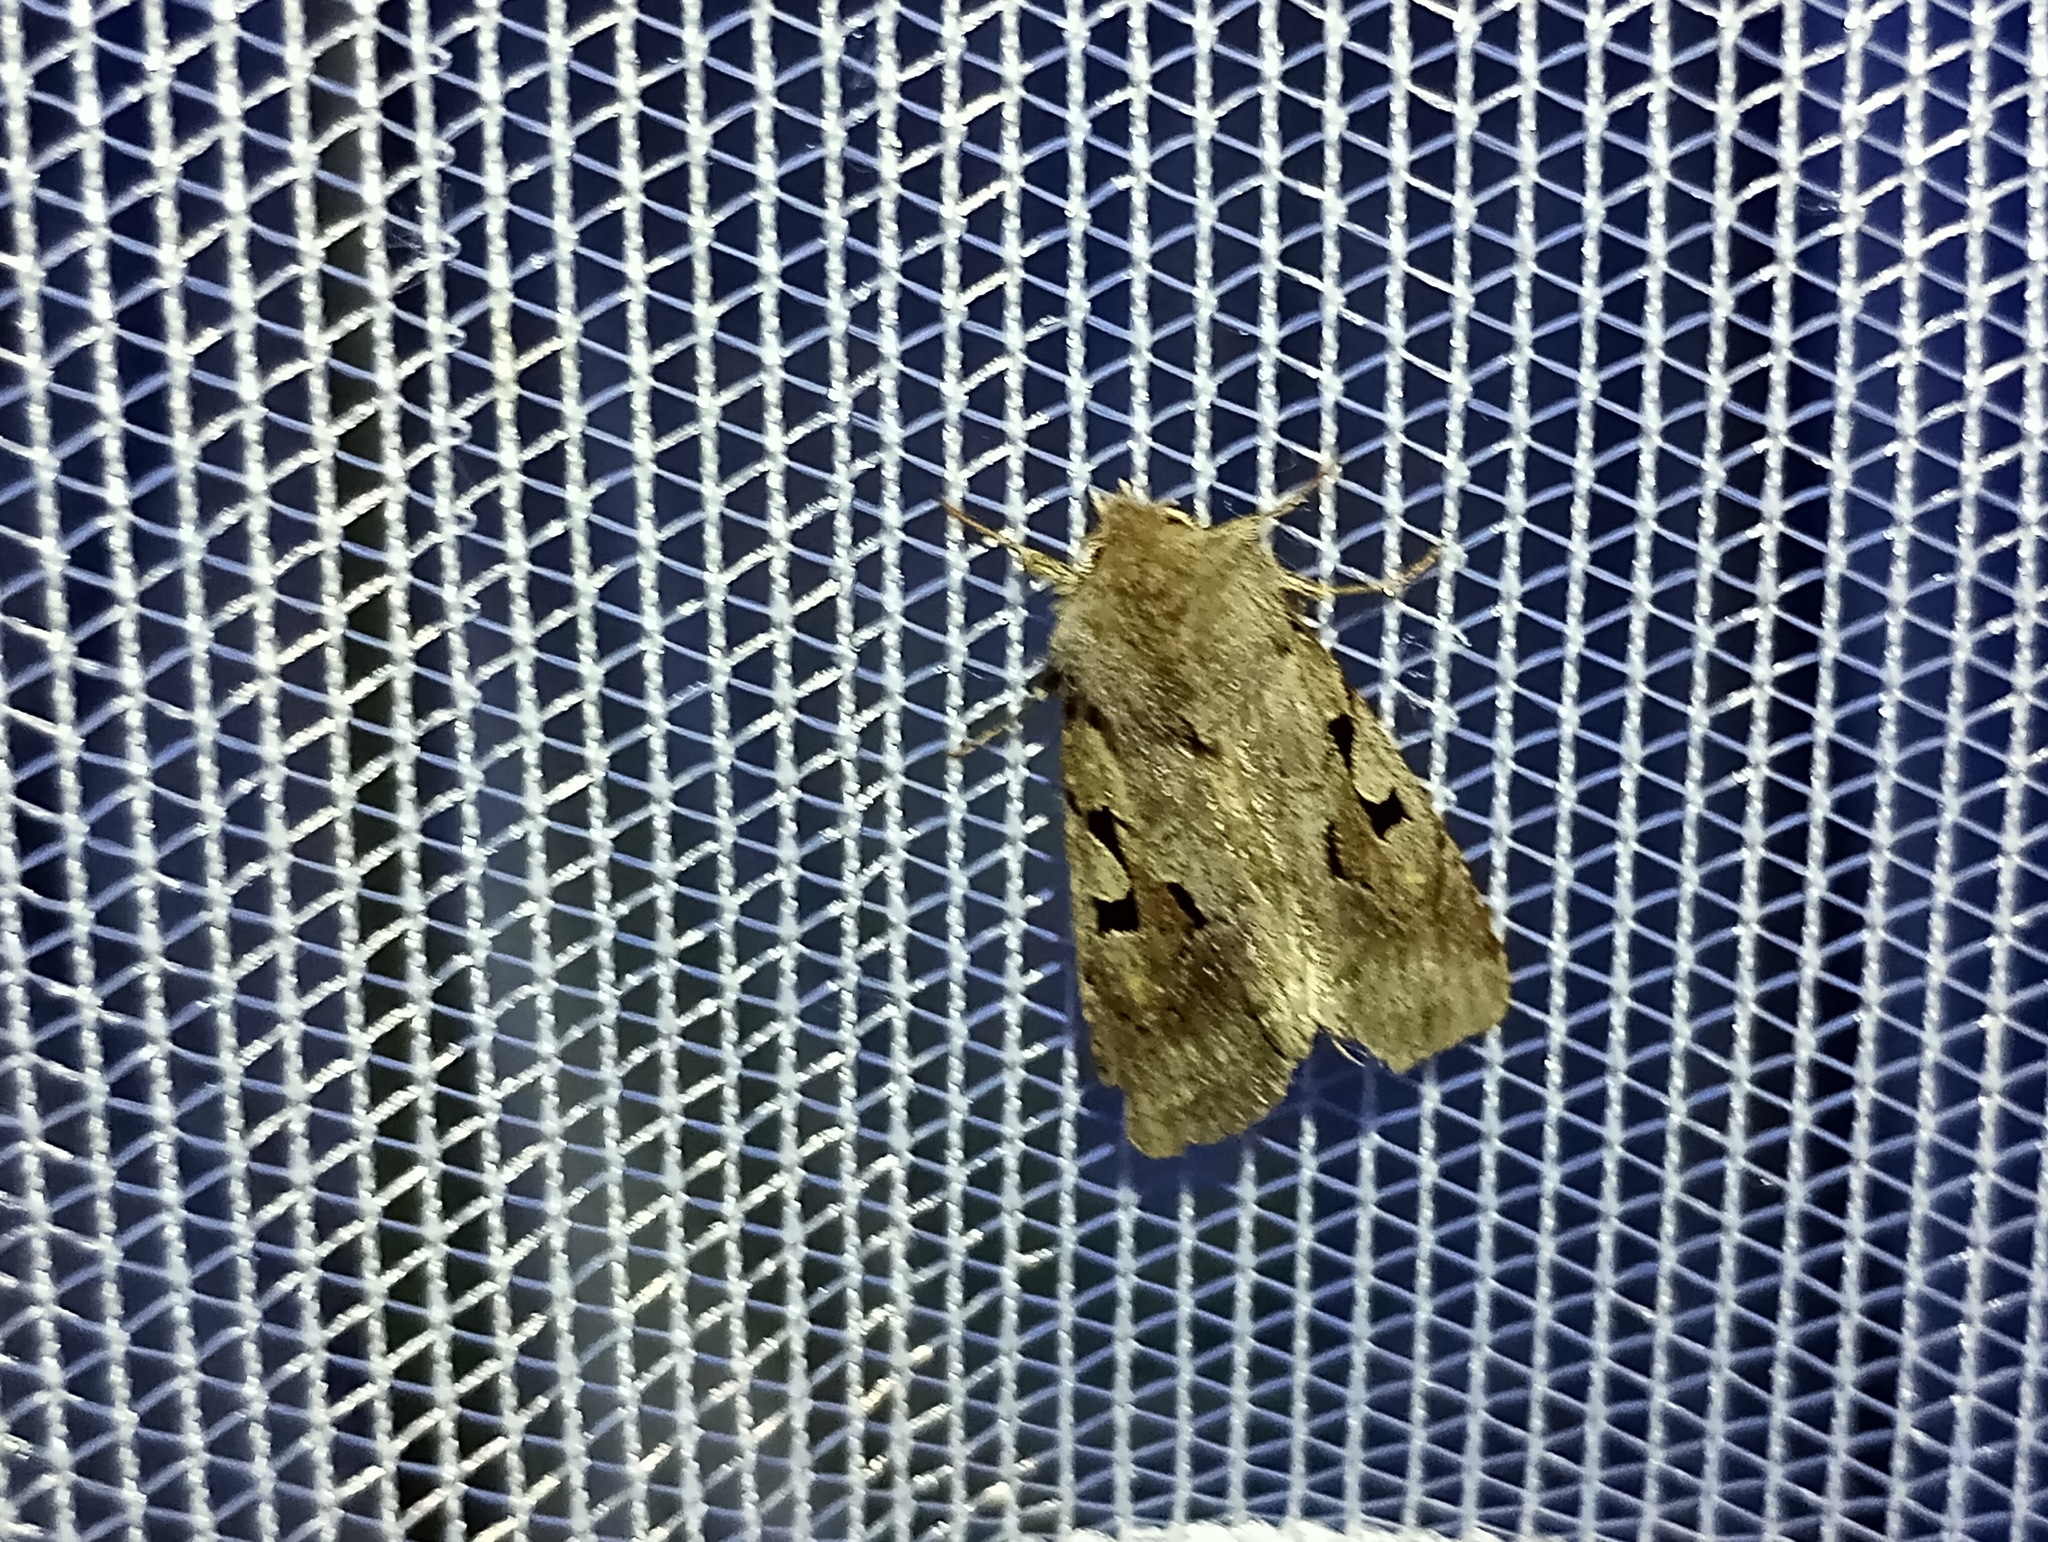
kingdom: Animalia
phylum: Arthropoda
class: Insecta
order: Lepidoptera
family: Noctuidae
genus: Orthosia
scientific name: Orthosia gothica
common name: Hebrew character
